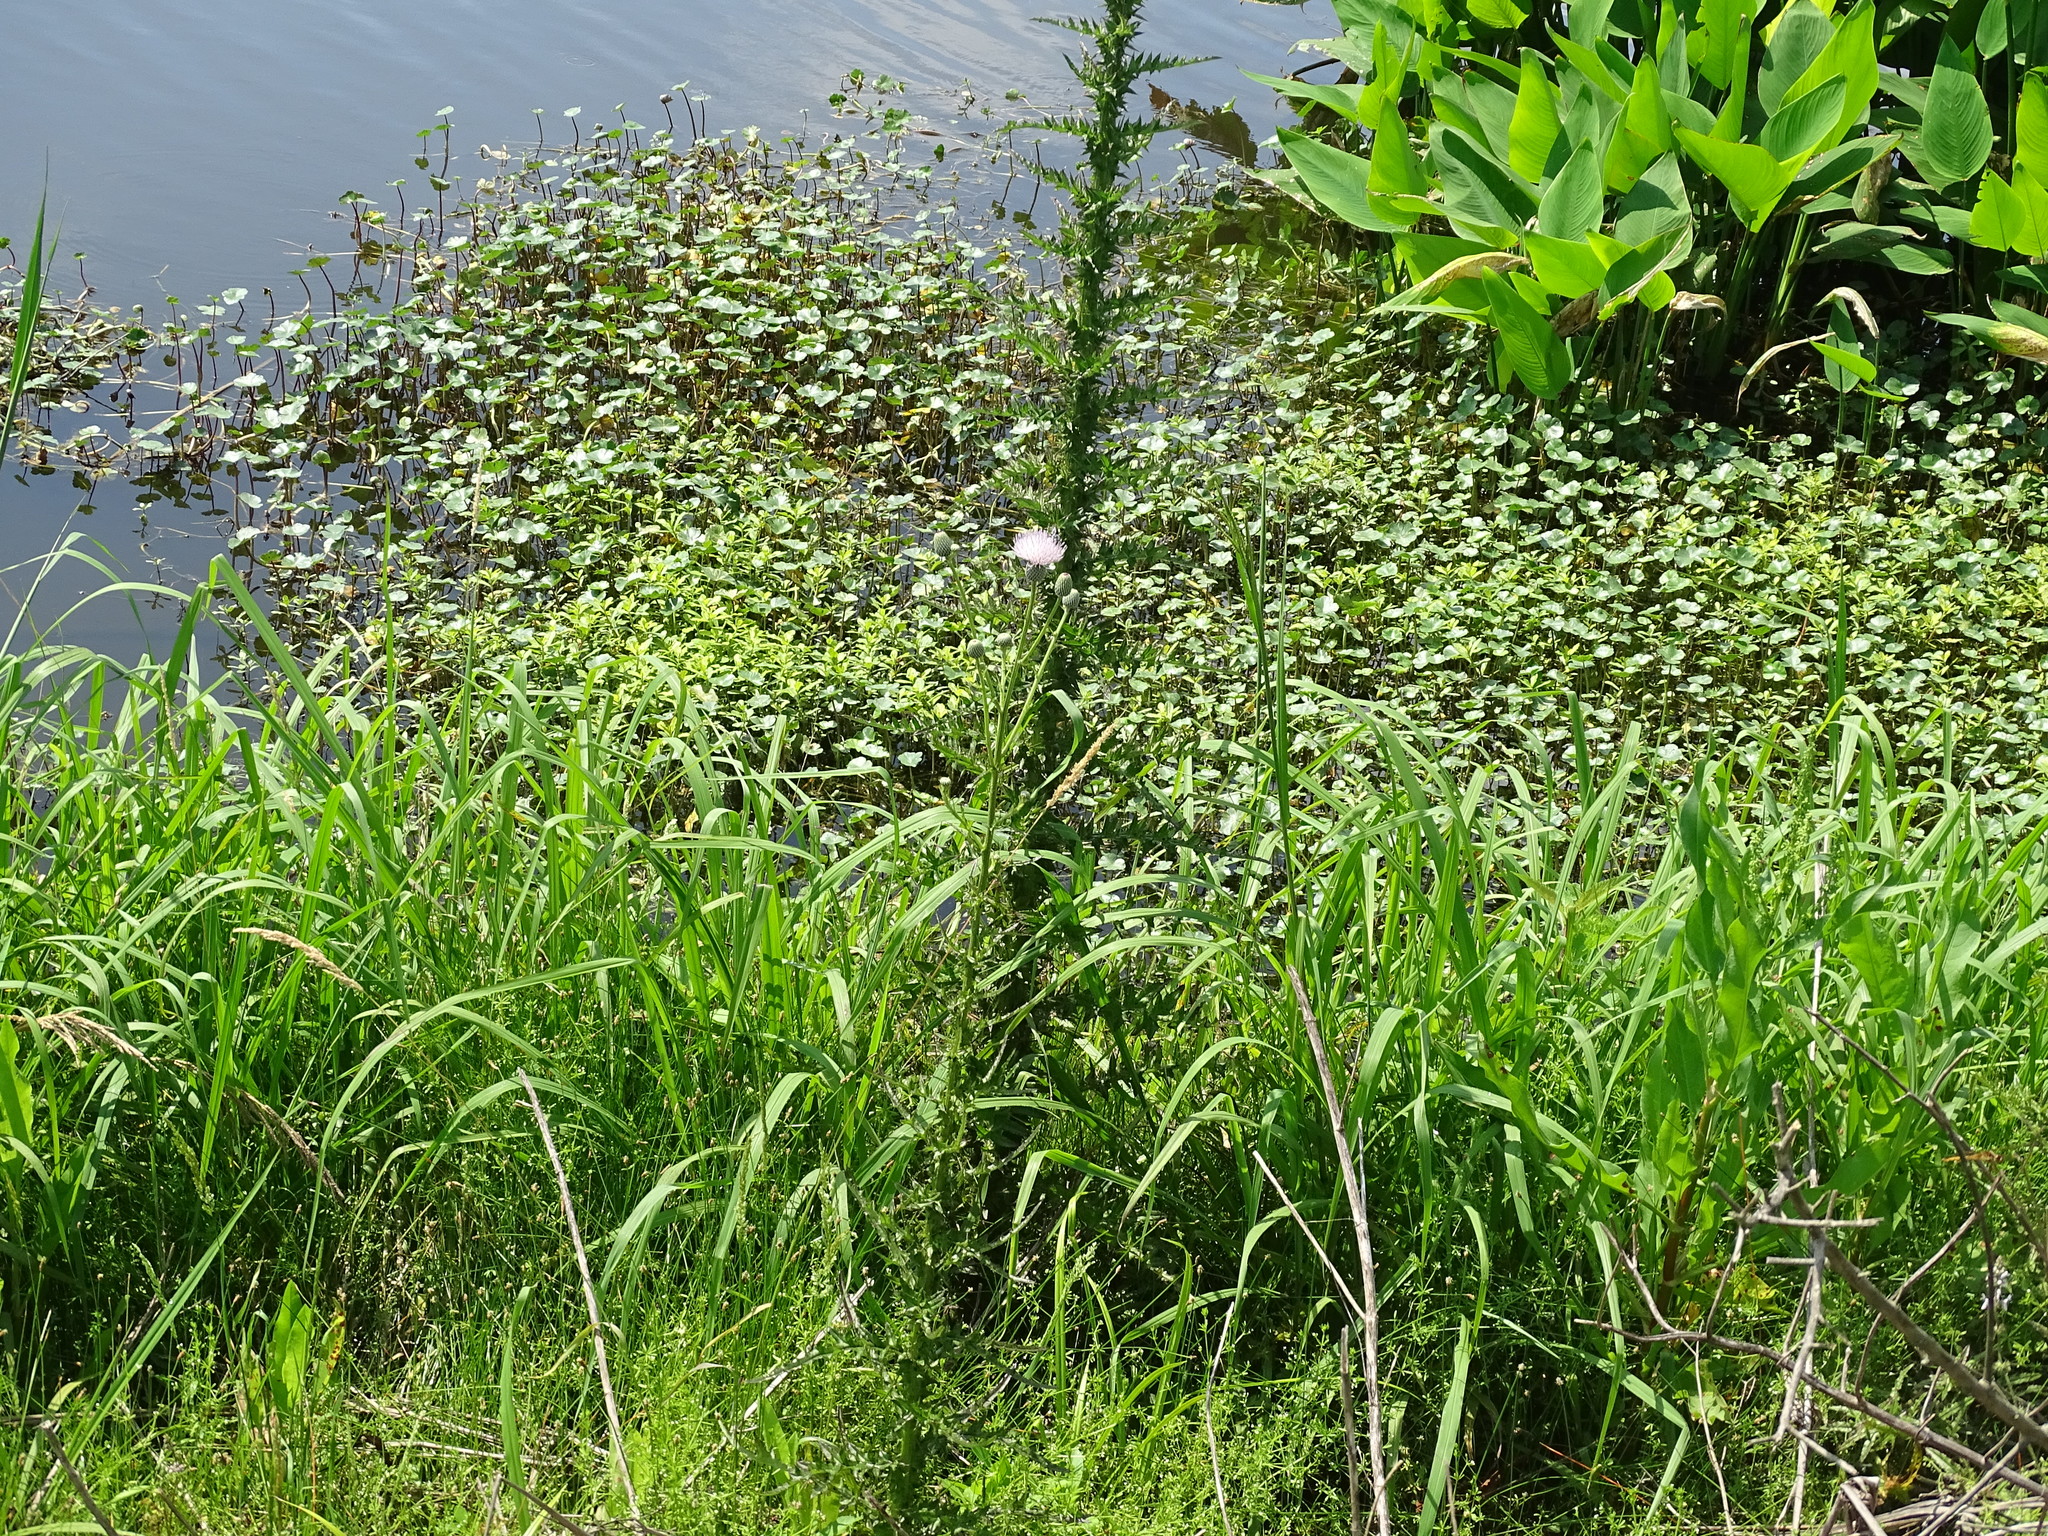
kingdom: Plantae
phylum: Tracheophyta
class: Magnoliopsida
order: Asterales
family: Asteraceae
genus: Cirsium
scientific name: Cirsium nuttalii
